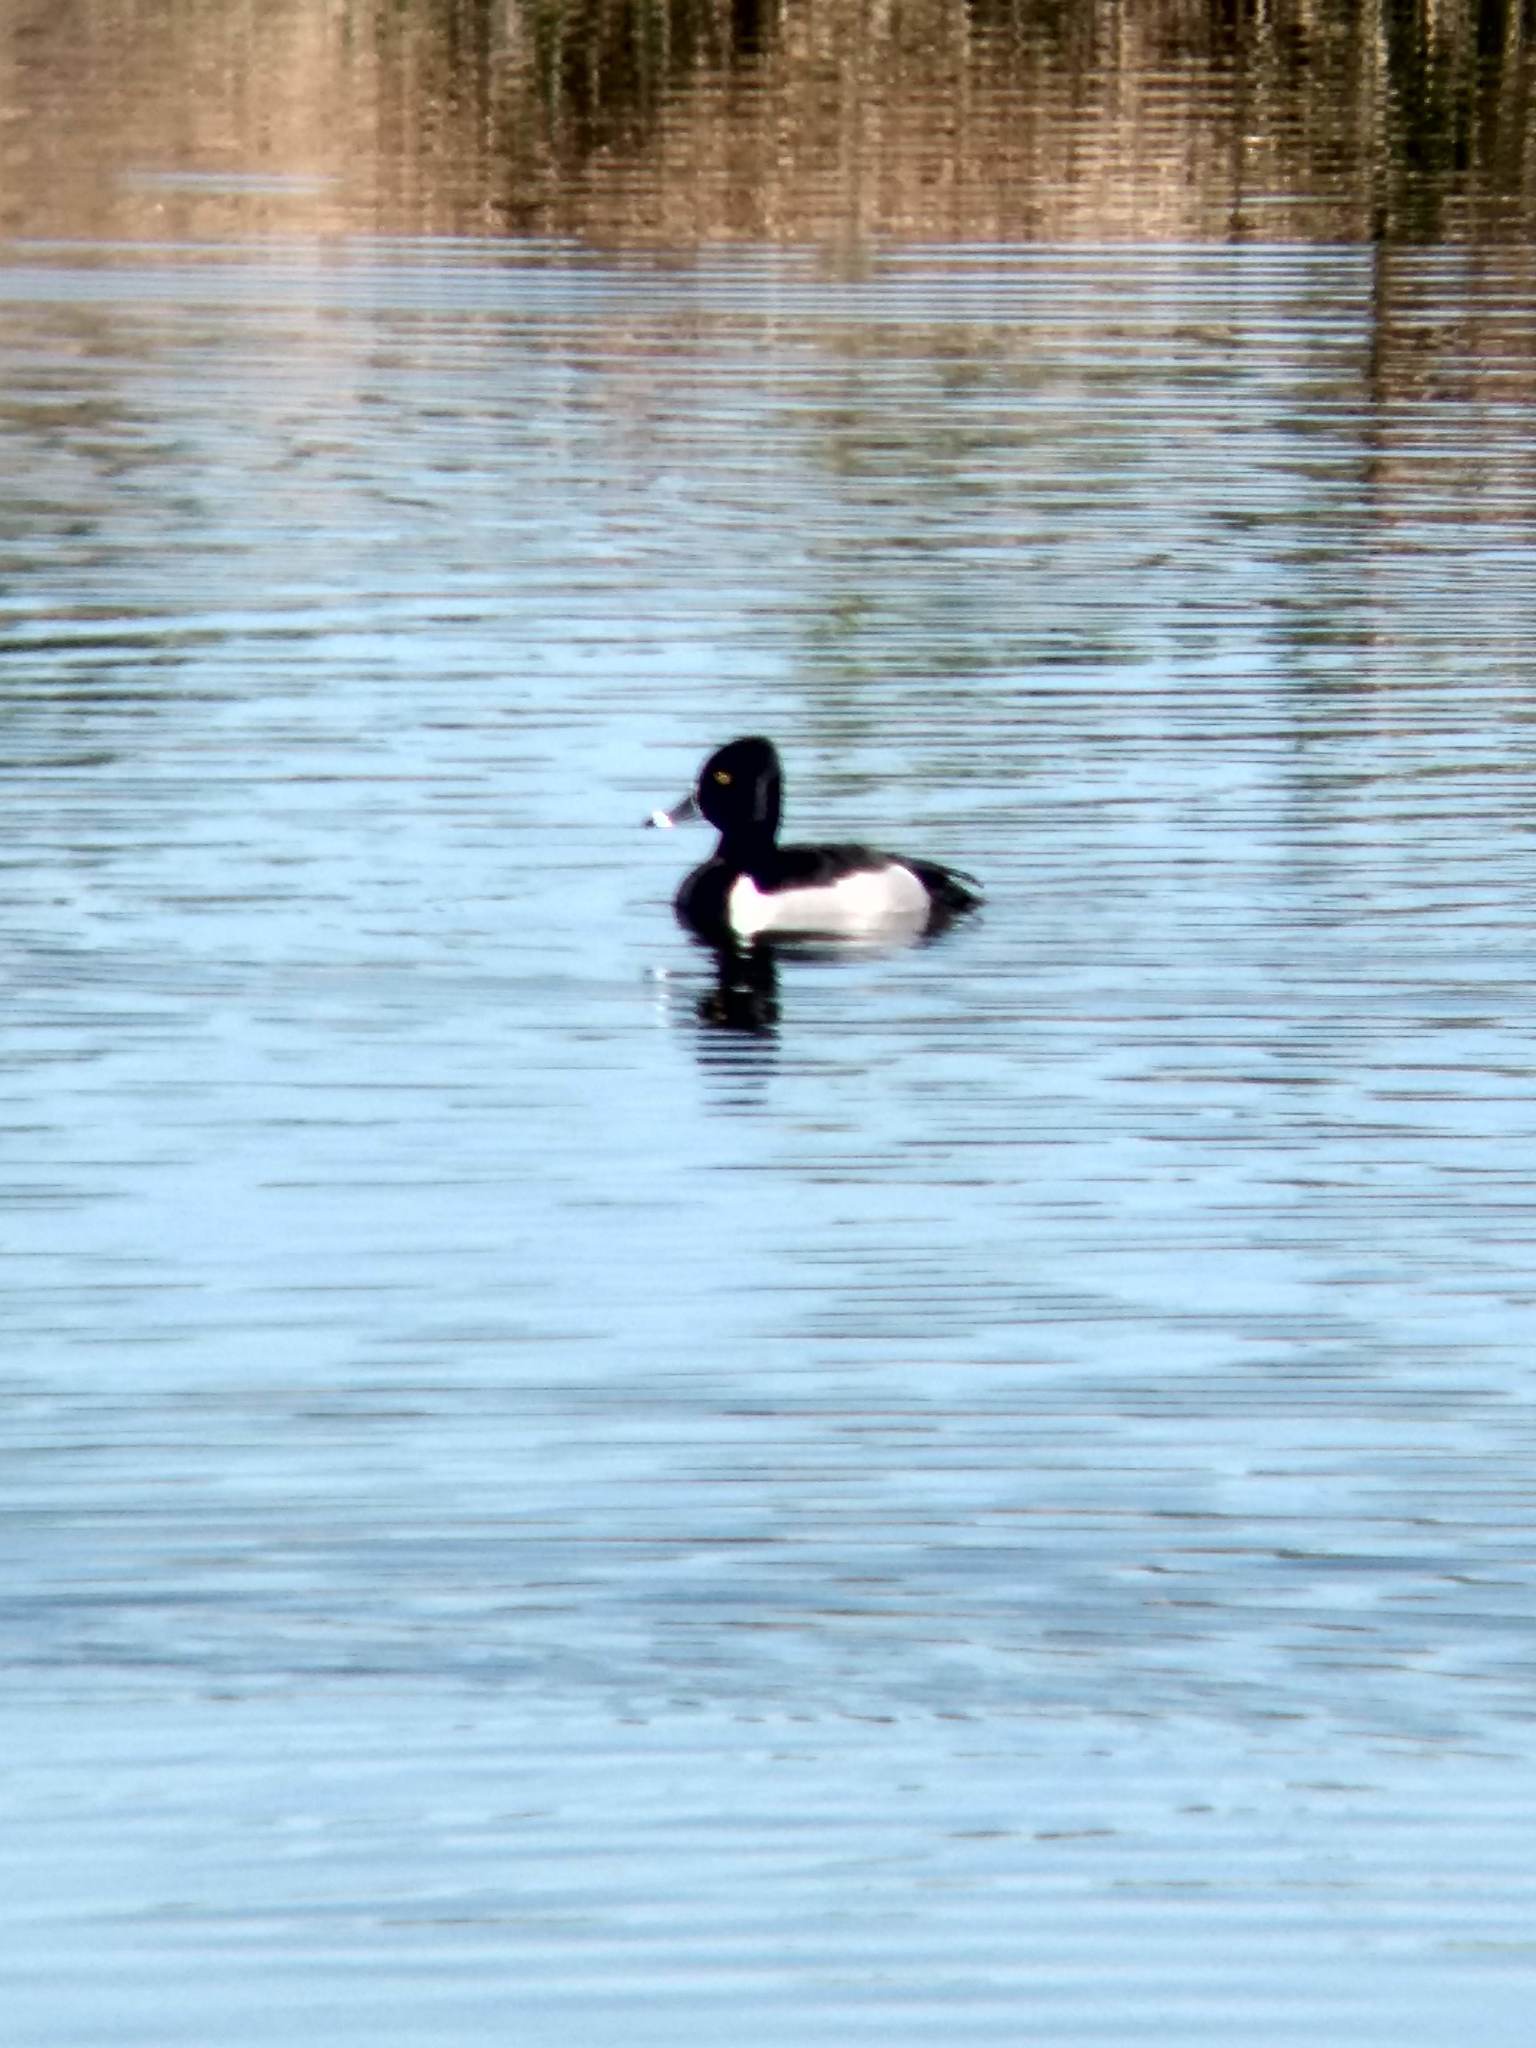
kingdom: Animalia
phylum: Chordata
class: Aves
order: Anseriformes
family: Anatidae
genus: Aythya
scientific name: Aythya collaris
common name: Ring-necked duck
